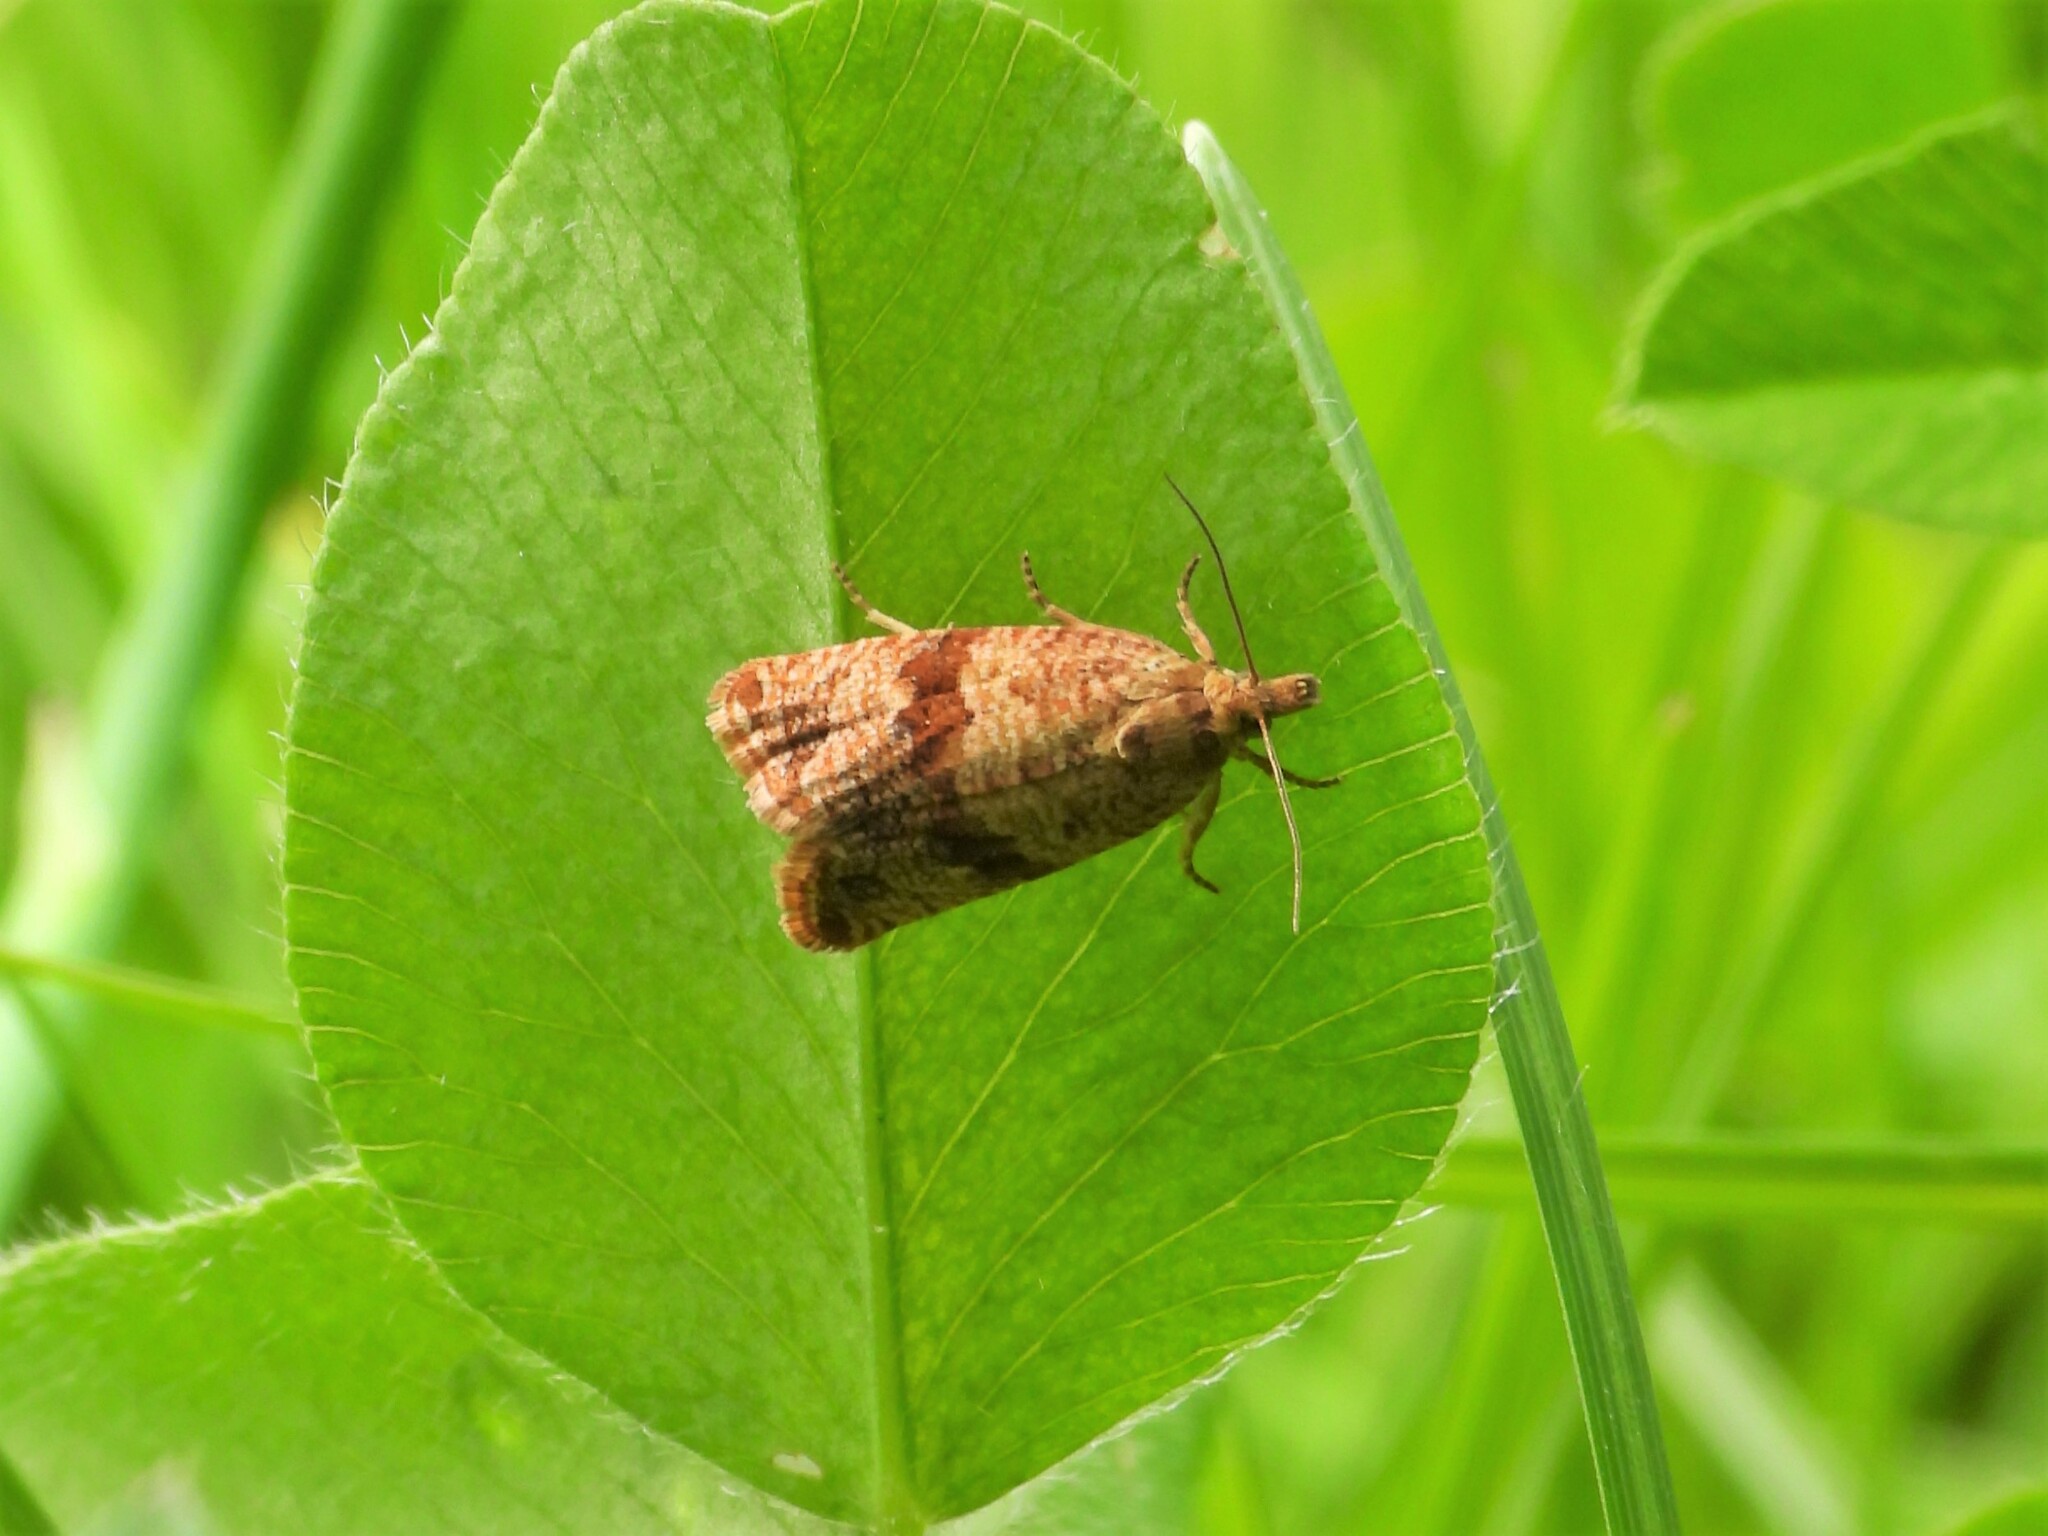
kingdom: Animalia
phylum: Arthropoda
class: Insecta
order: Lepidoptera
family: Tortricidae
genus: Celypha
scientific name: Celypha striana
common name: Barred marble
